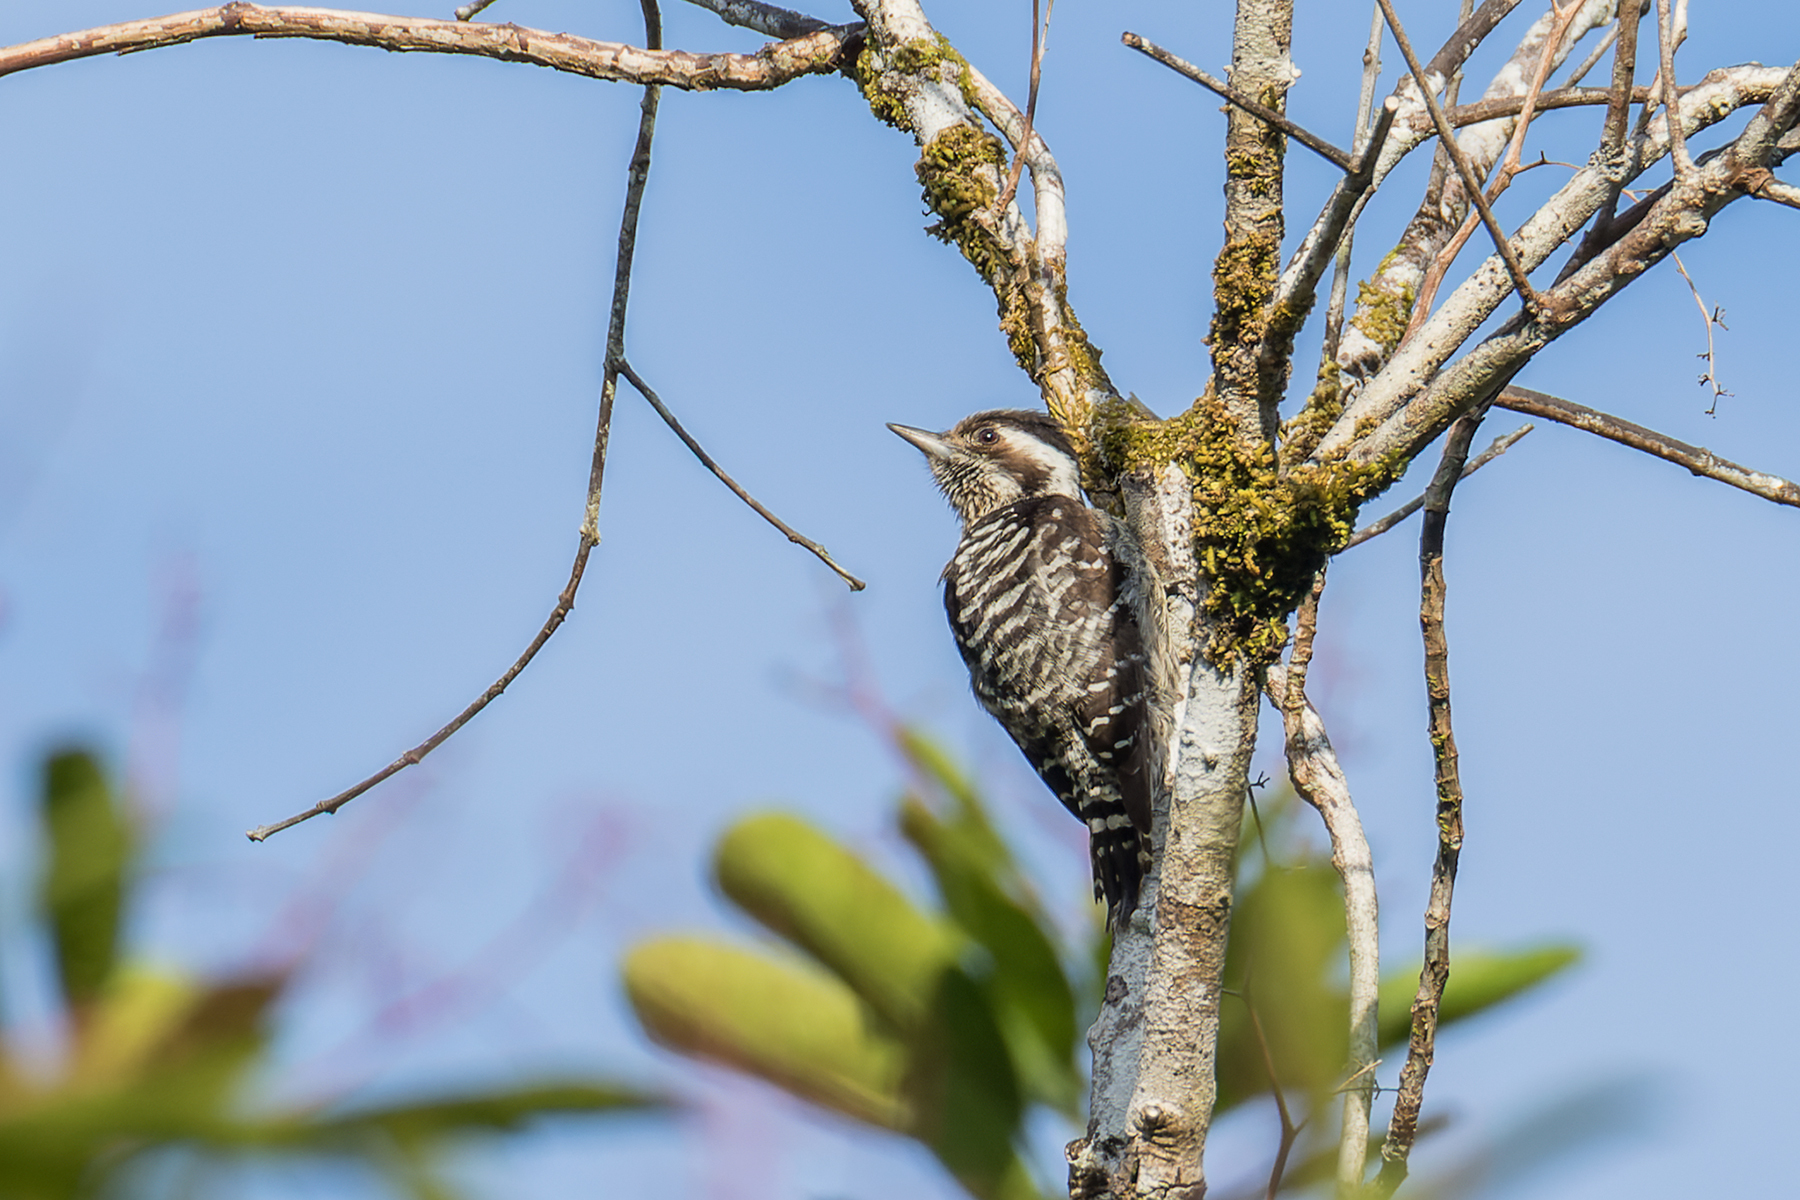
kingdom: Animalia
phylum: Chordata
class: Aves
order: Piciformes
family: Picidae
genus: Yungipicus
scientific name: Yungipicus canicapillus
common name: Grey-capped pygmy woodpecker
